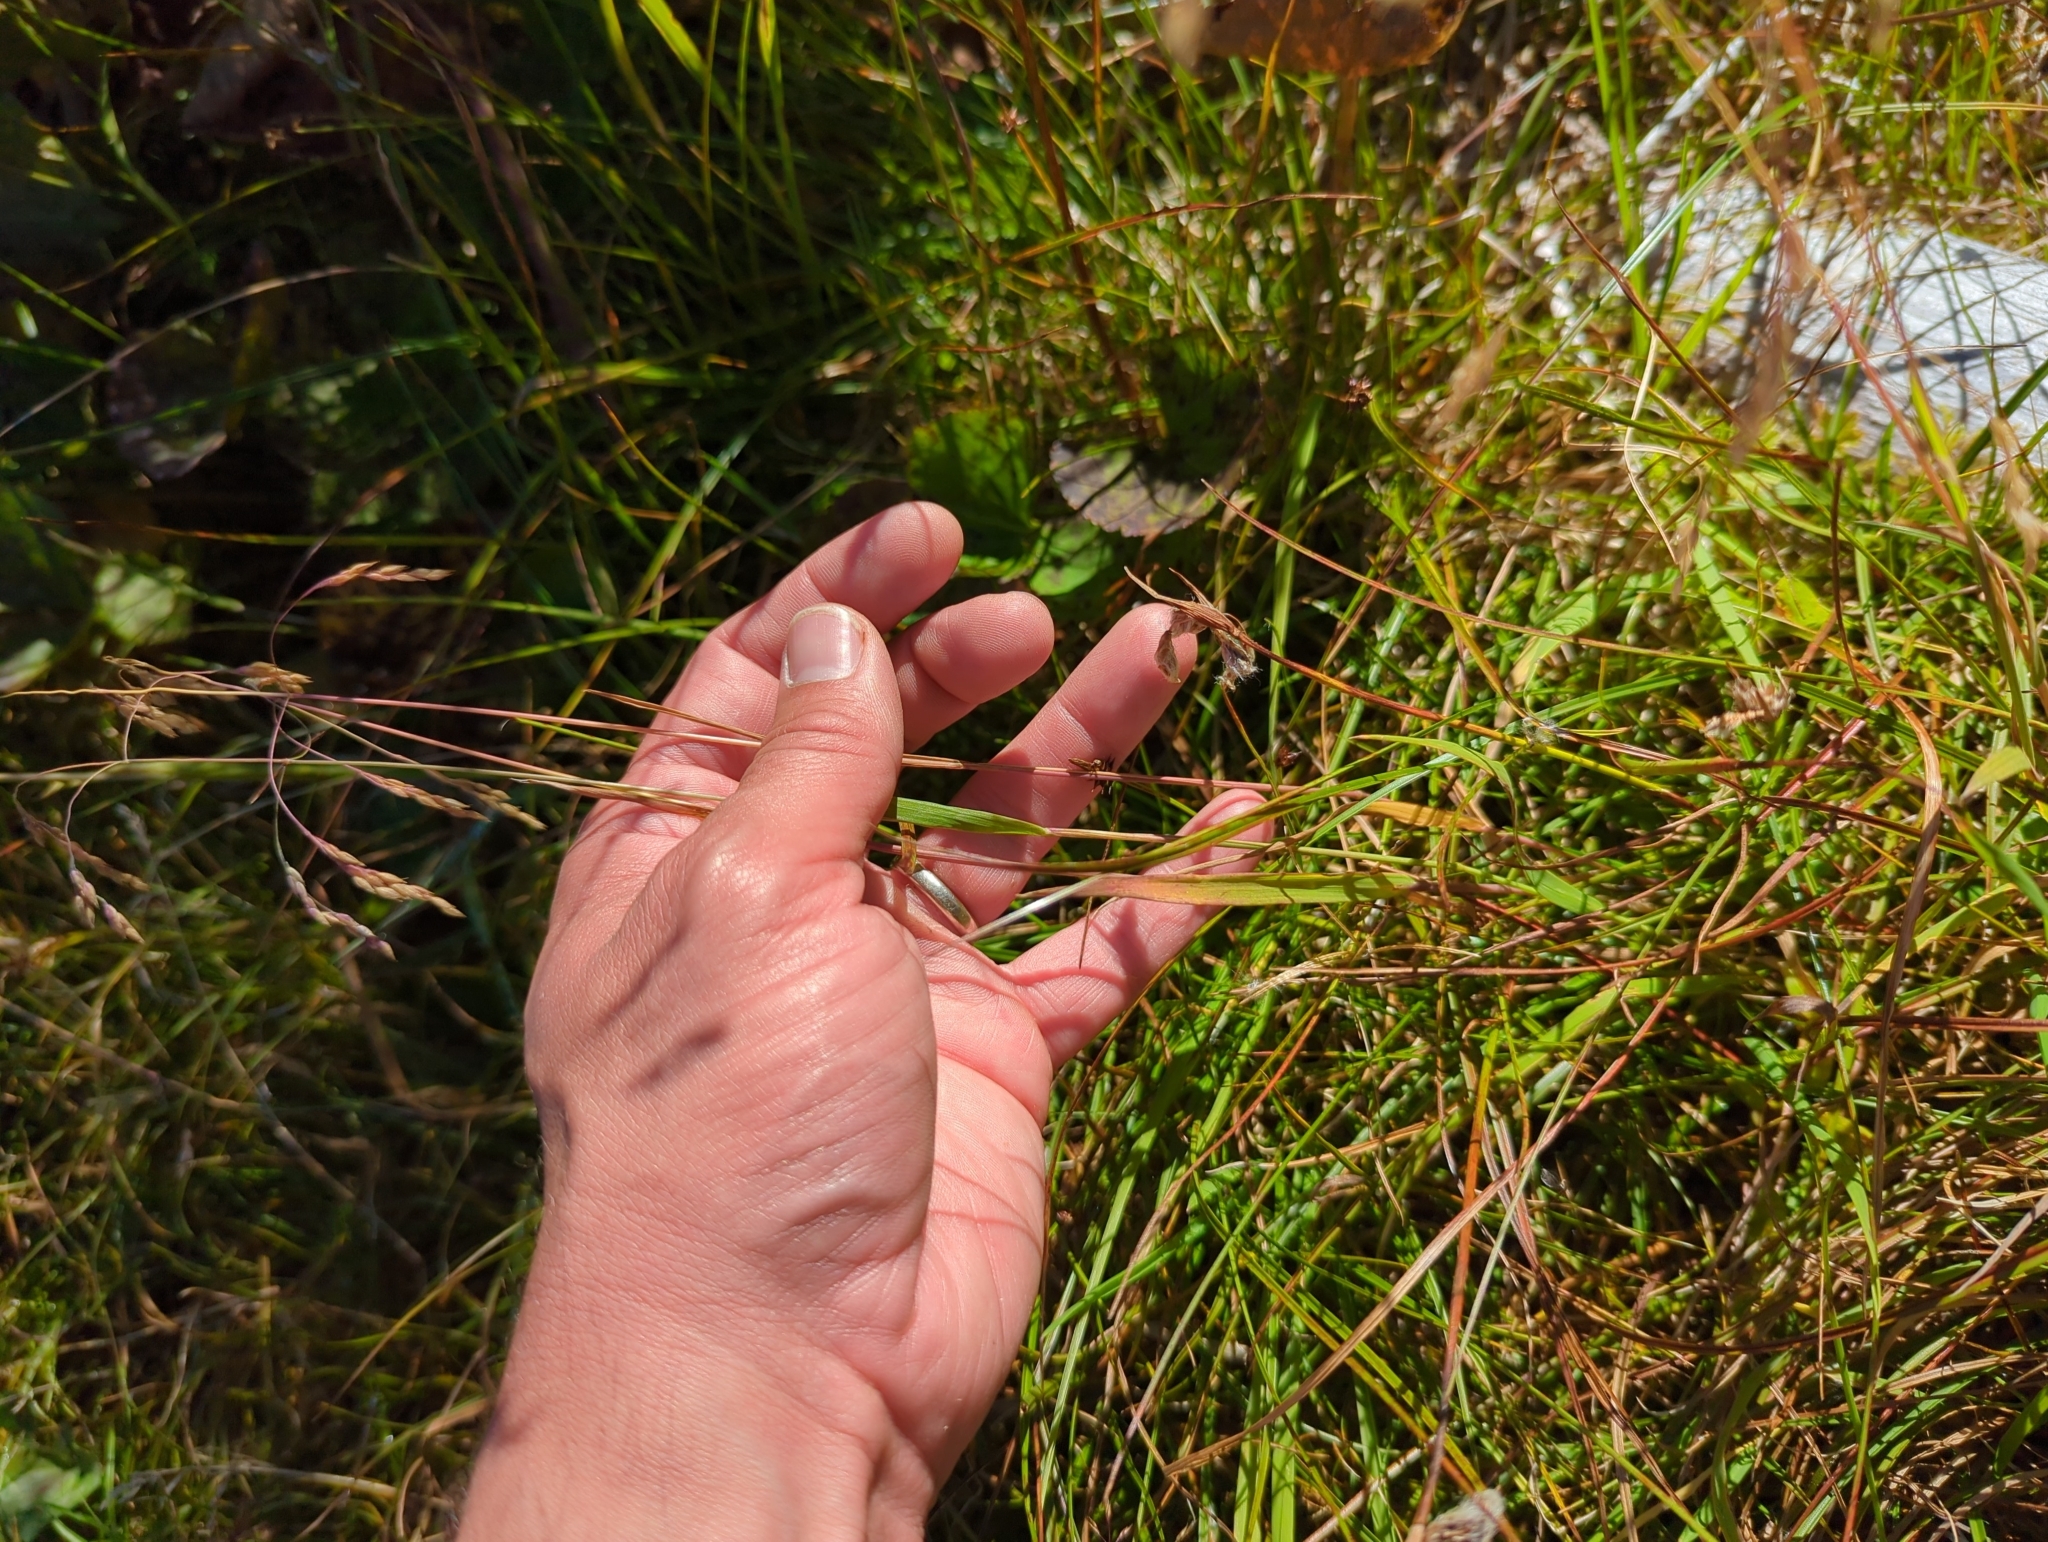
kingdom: Plantae
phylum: Tracheophyta
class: Liliopsida
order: Poales
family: Poaceae
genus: Vahlodea
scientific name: Vahlodea atropurpurea
